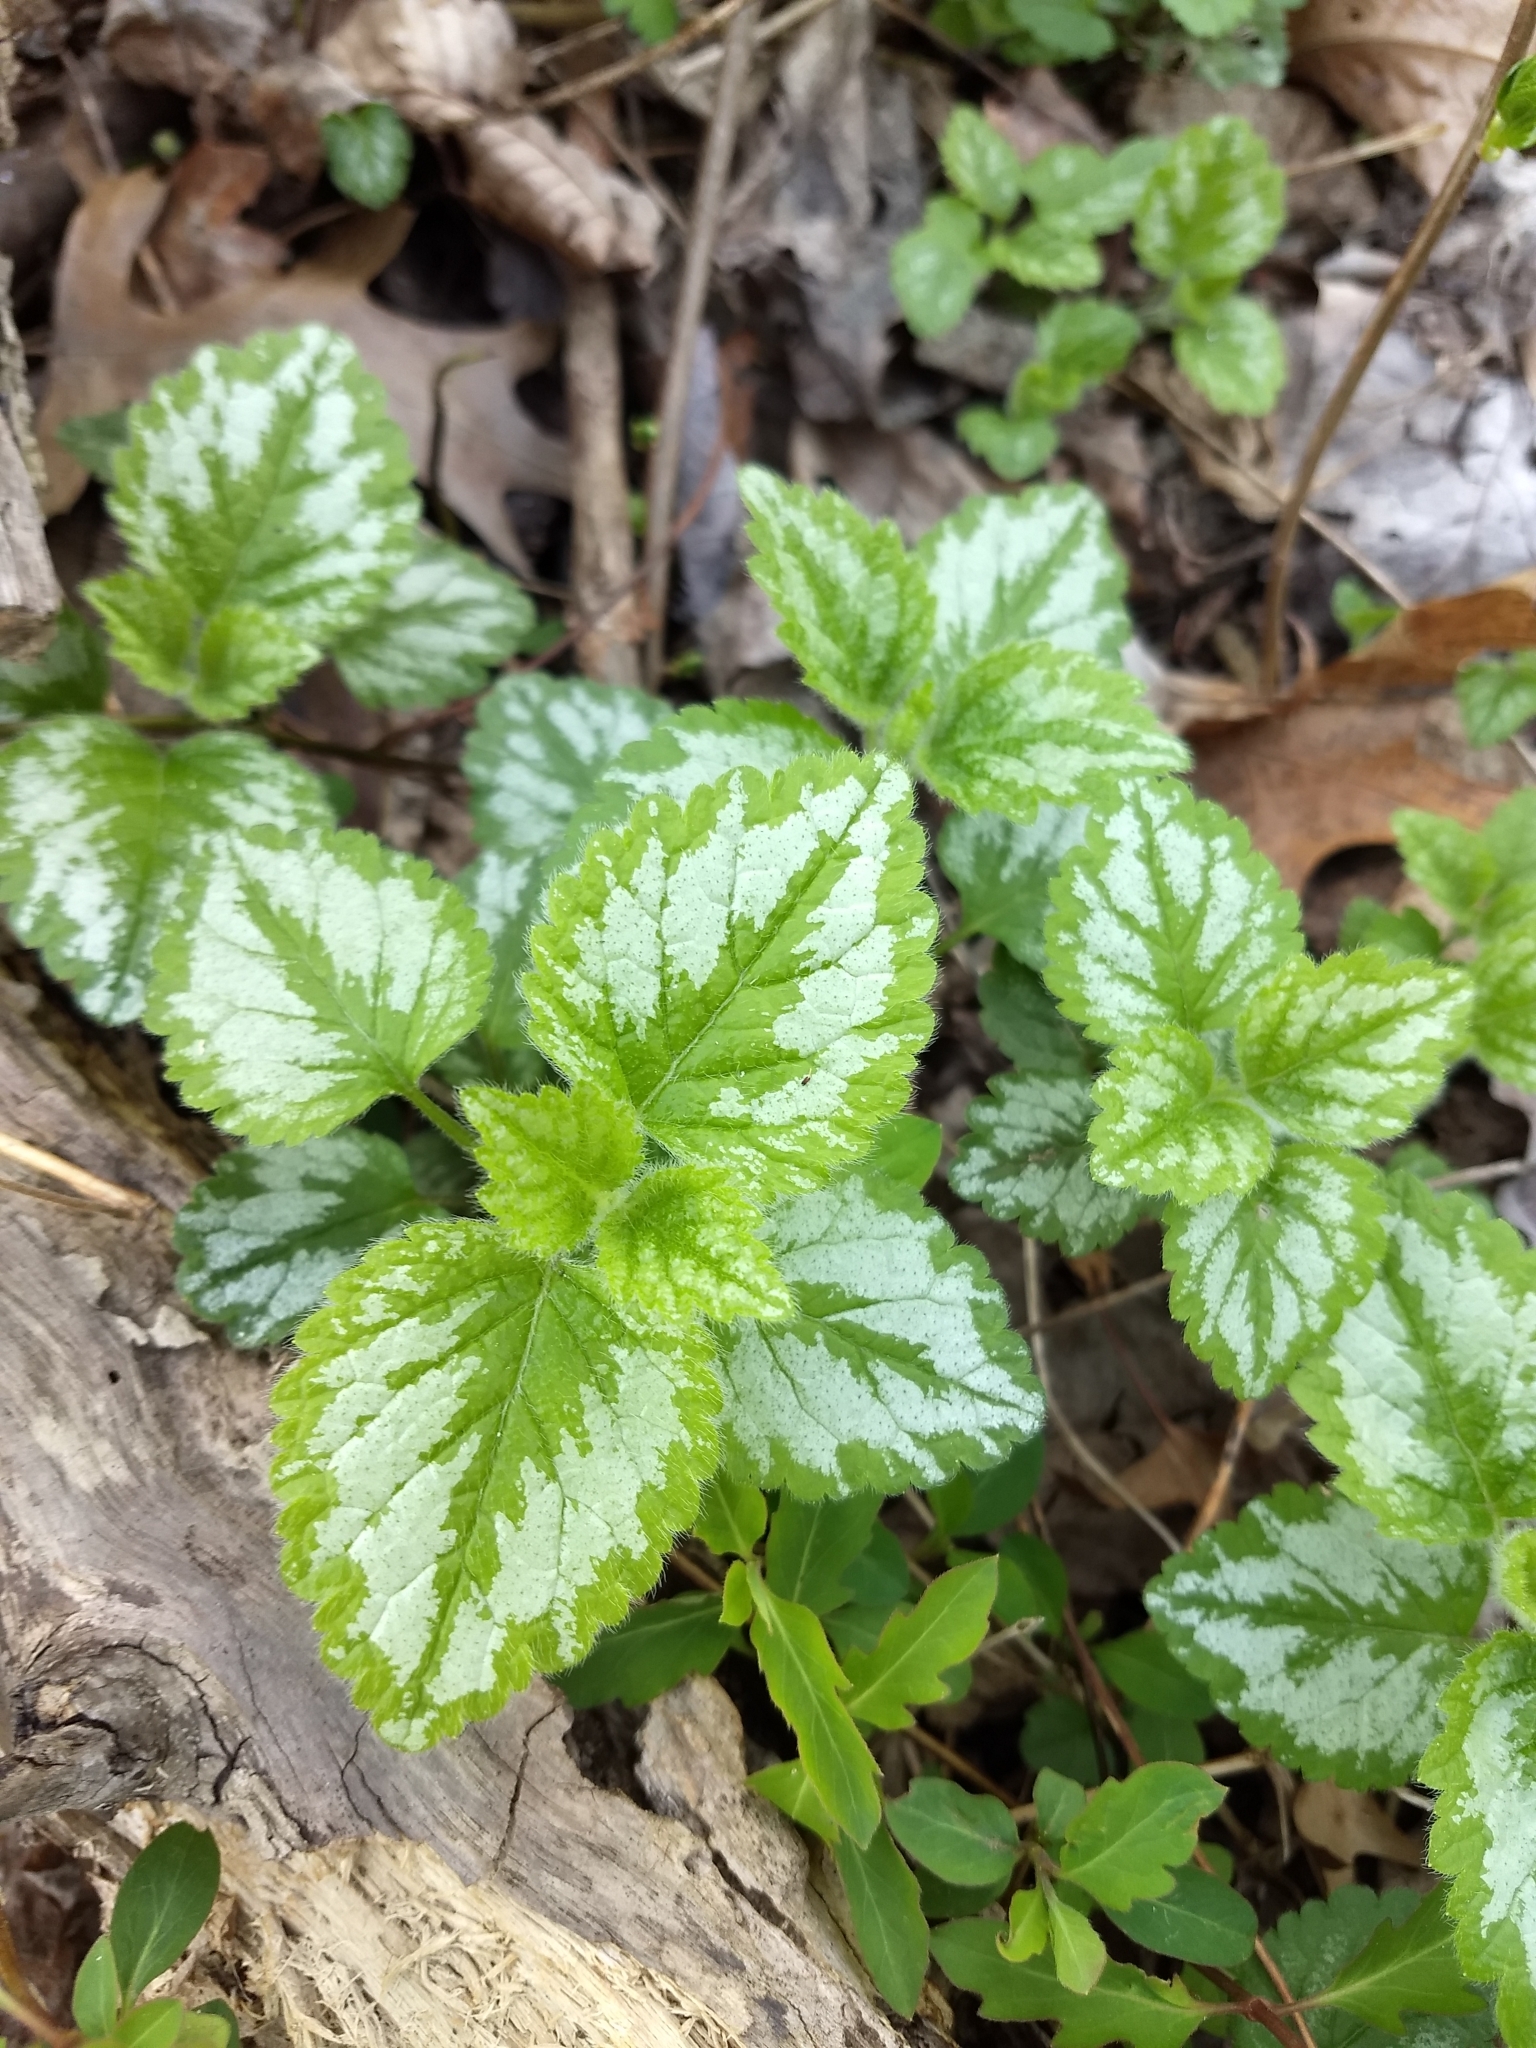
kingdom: Plantae
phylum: Tracheophyta
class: Magnoliopsida
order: Lamiales
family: Lamiaceae
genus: Lamium
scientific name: Lamium galeobdolon
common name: Yellow archangel
